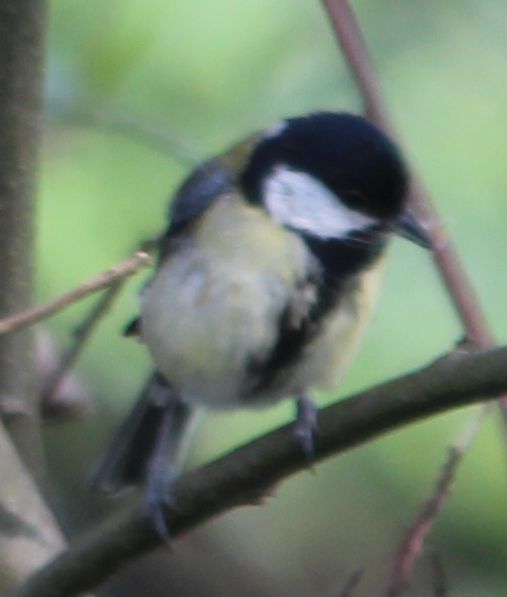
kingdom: Animalia
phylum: Chordata
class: Aves
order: Passeriformes
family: Paridae
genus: Parus
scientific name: Parus major
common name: Great tit
